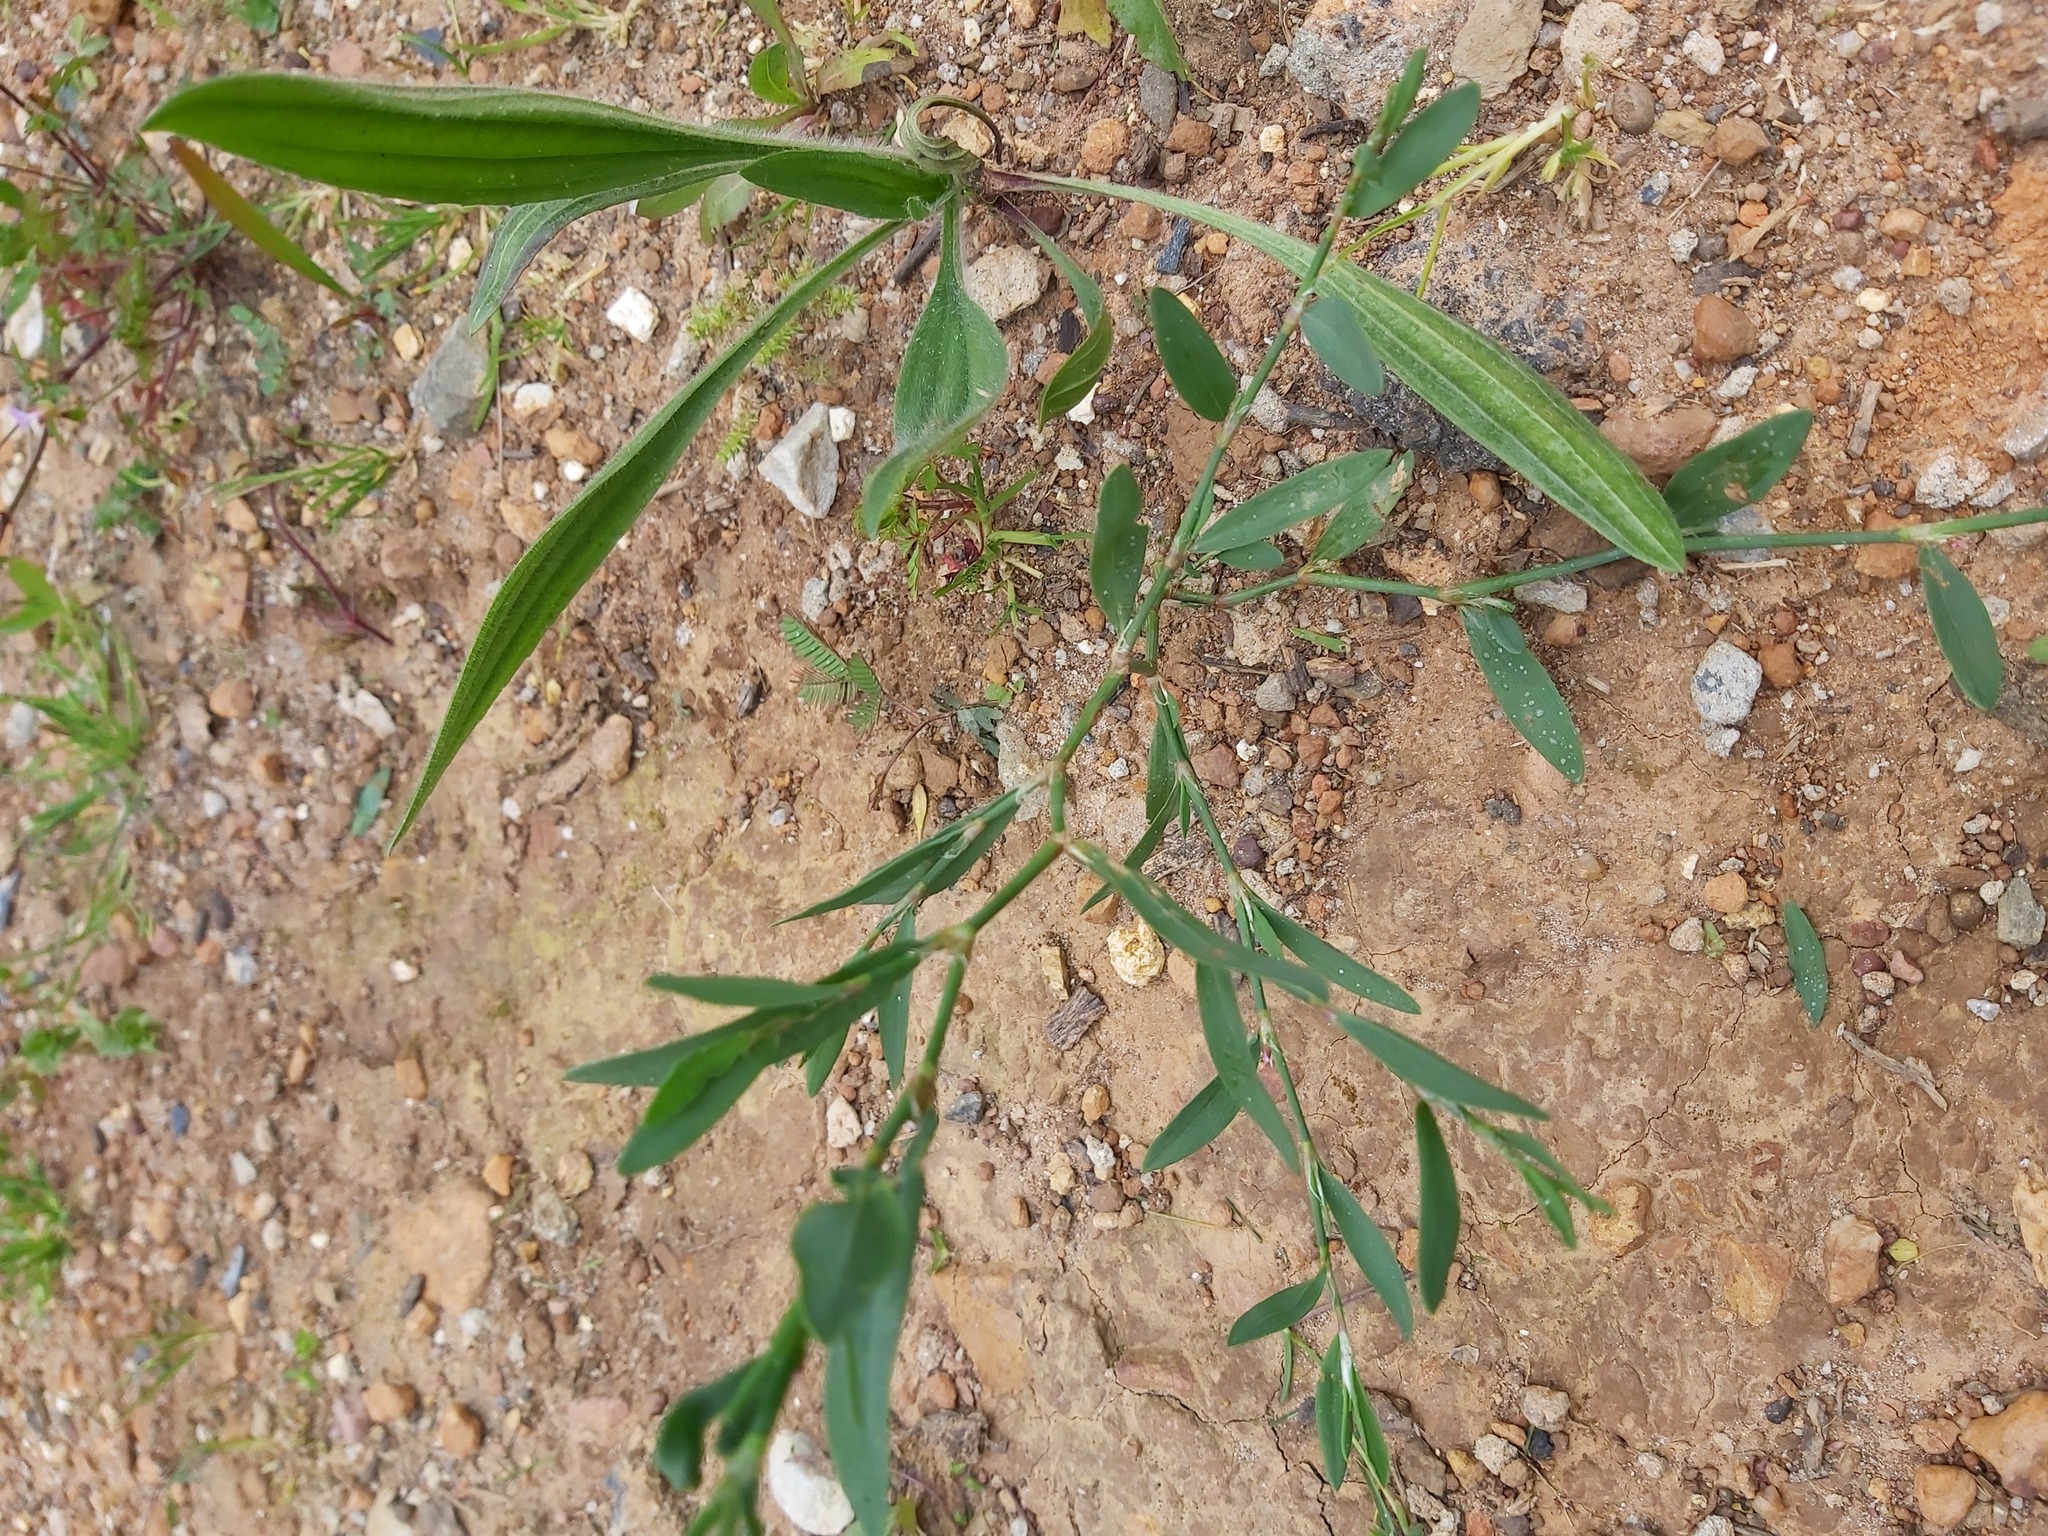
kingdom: Plantae
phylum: Tracheophyta
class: Magnoliopsida
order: Caryophyllales
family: Polygonaceae
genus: Polygonum
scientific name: Polygonum aviculare
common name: Prostrate knotweed
